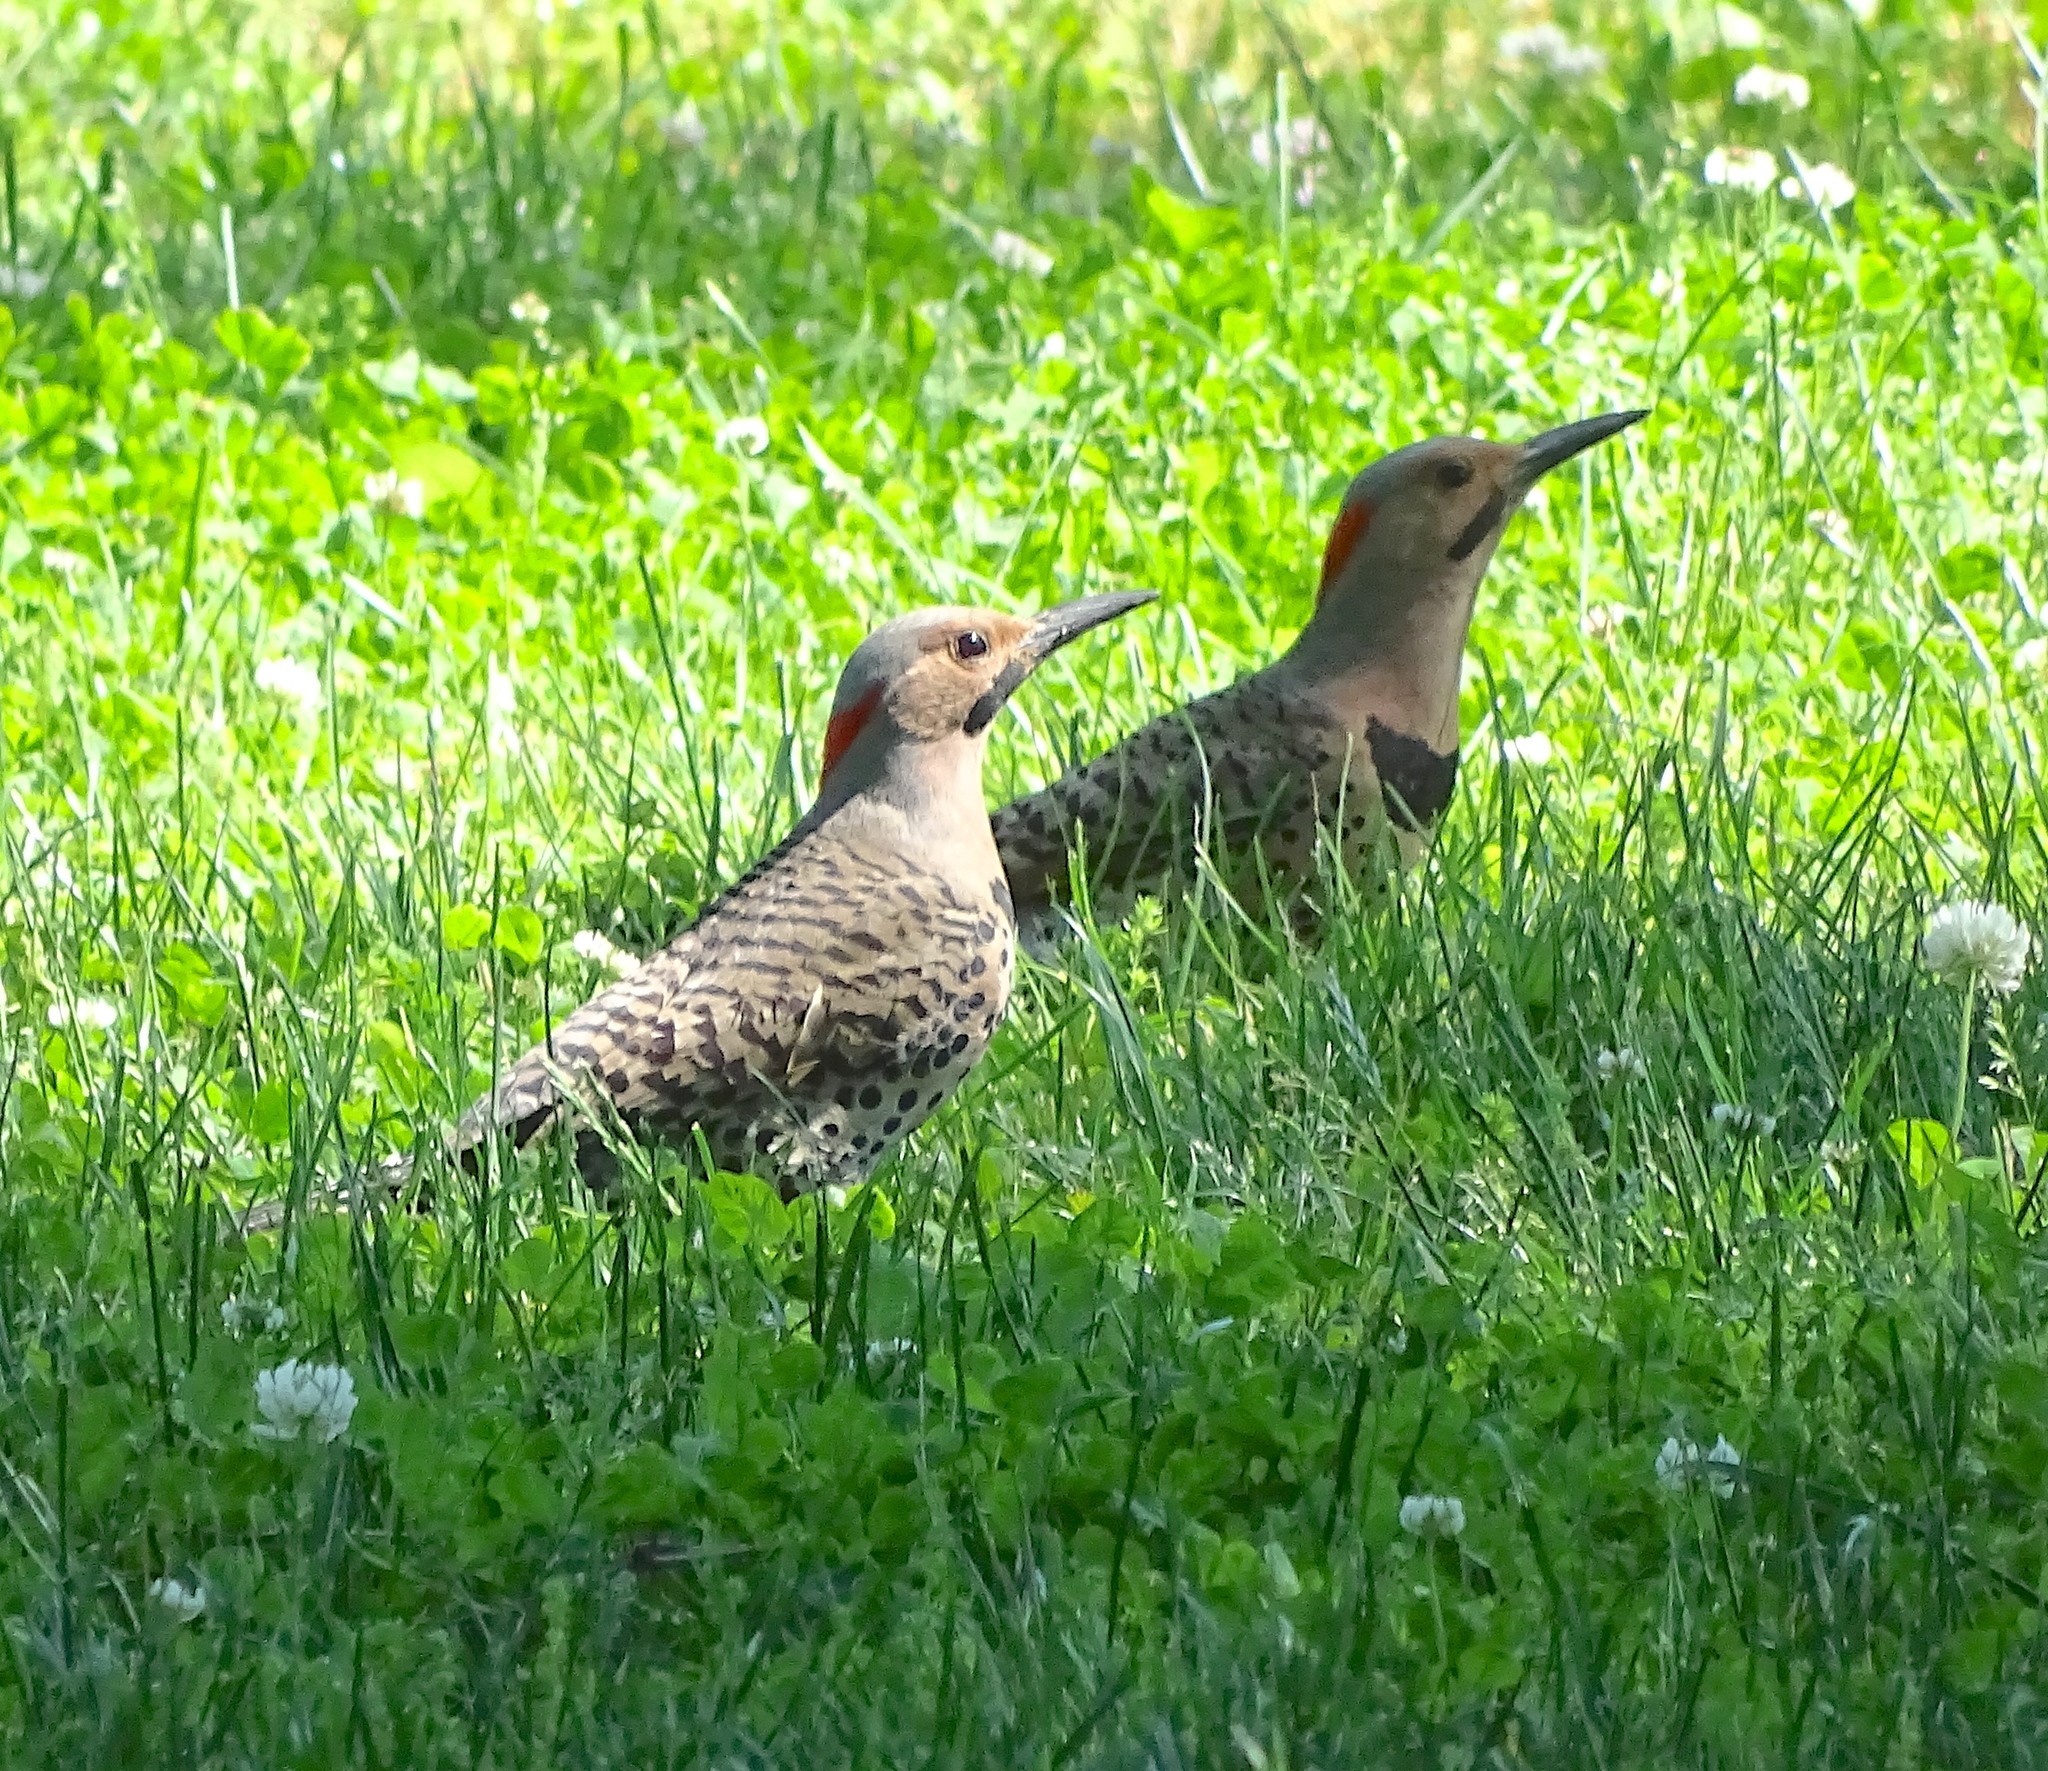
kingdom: Animalia
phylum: Chordata
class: Aves
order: Piciformes
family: Picidae
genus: Colaptes
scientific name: Colaptes auratus
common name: Northern flicker
